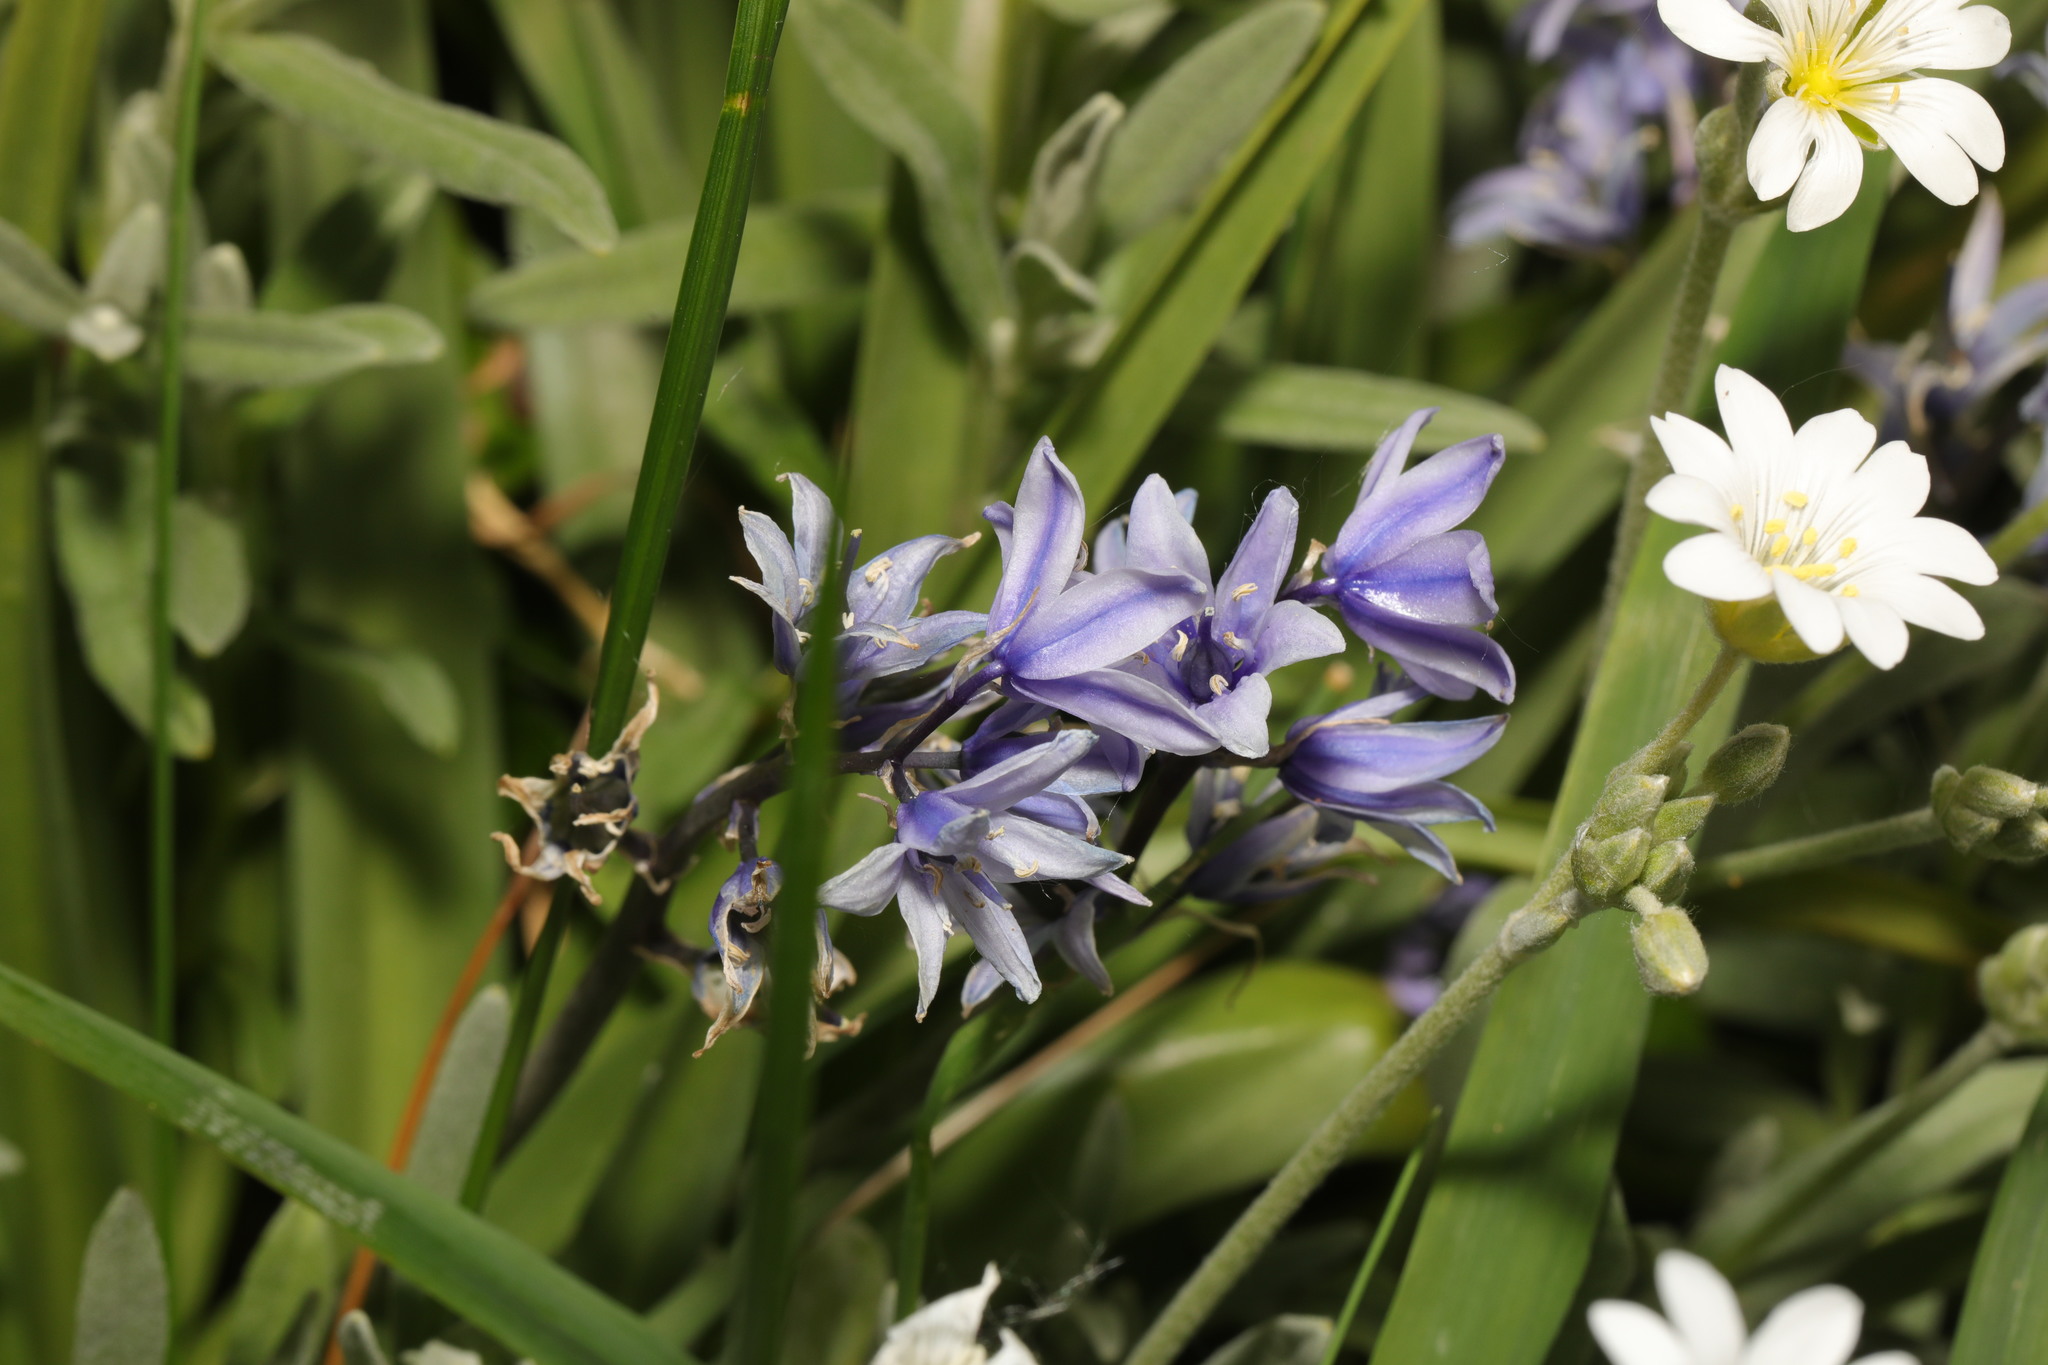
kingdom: Plantae
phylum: Tracheophyta
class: Liliopsida
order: Asparagales
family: Asparagaceae
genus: Hyacinthoides
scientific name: Hyacinthoides hispanica
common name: Spanish bluebell
